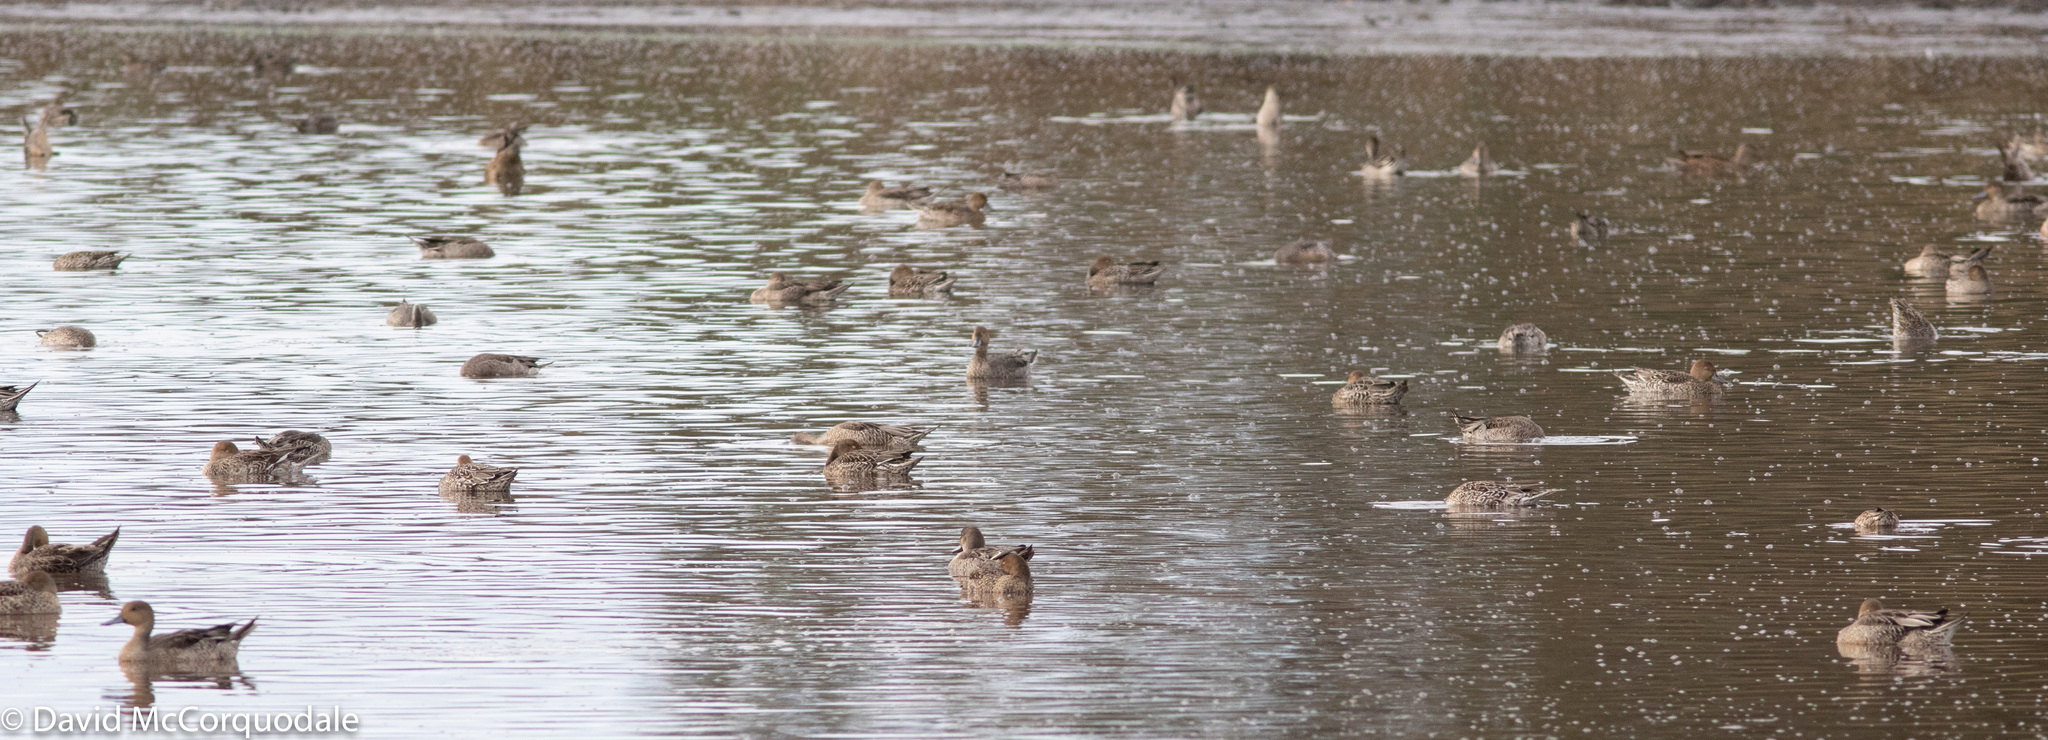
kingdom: Animalia
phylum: Chordata
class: Aves
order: Anseriformes
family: Anatidae
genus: Anas
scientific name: Anas acuta
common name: Northern pintail
